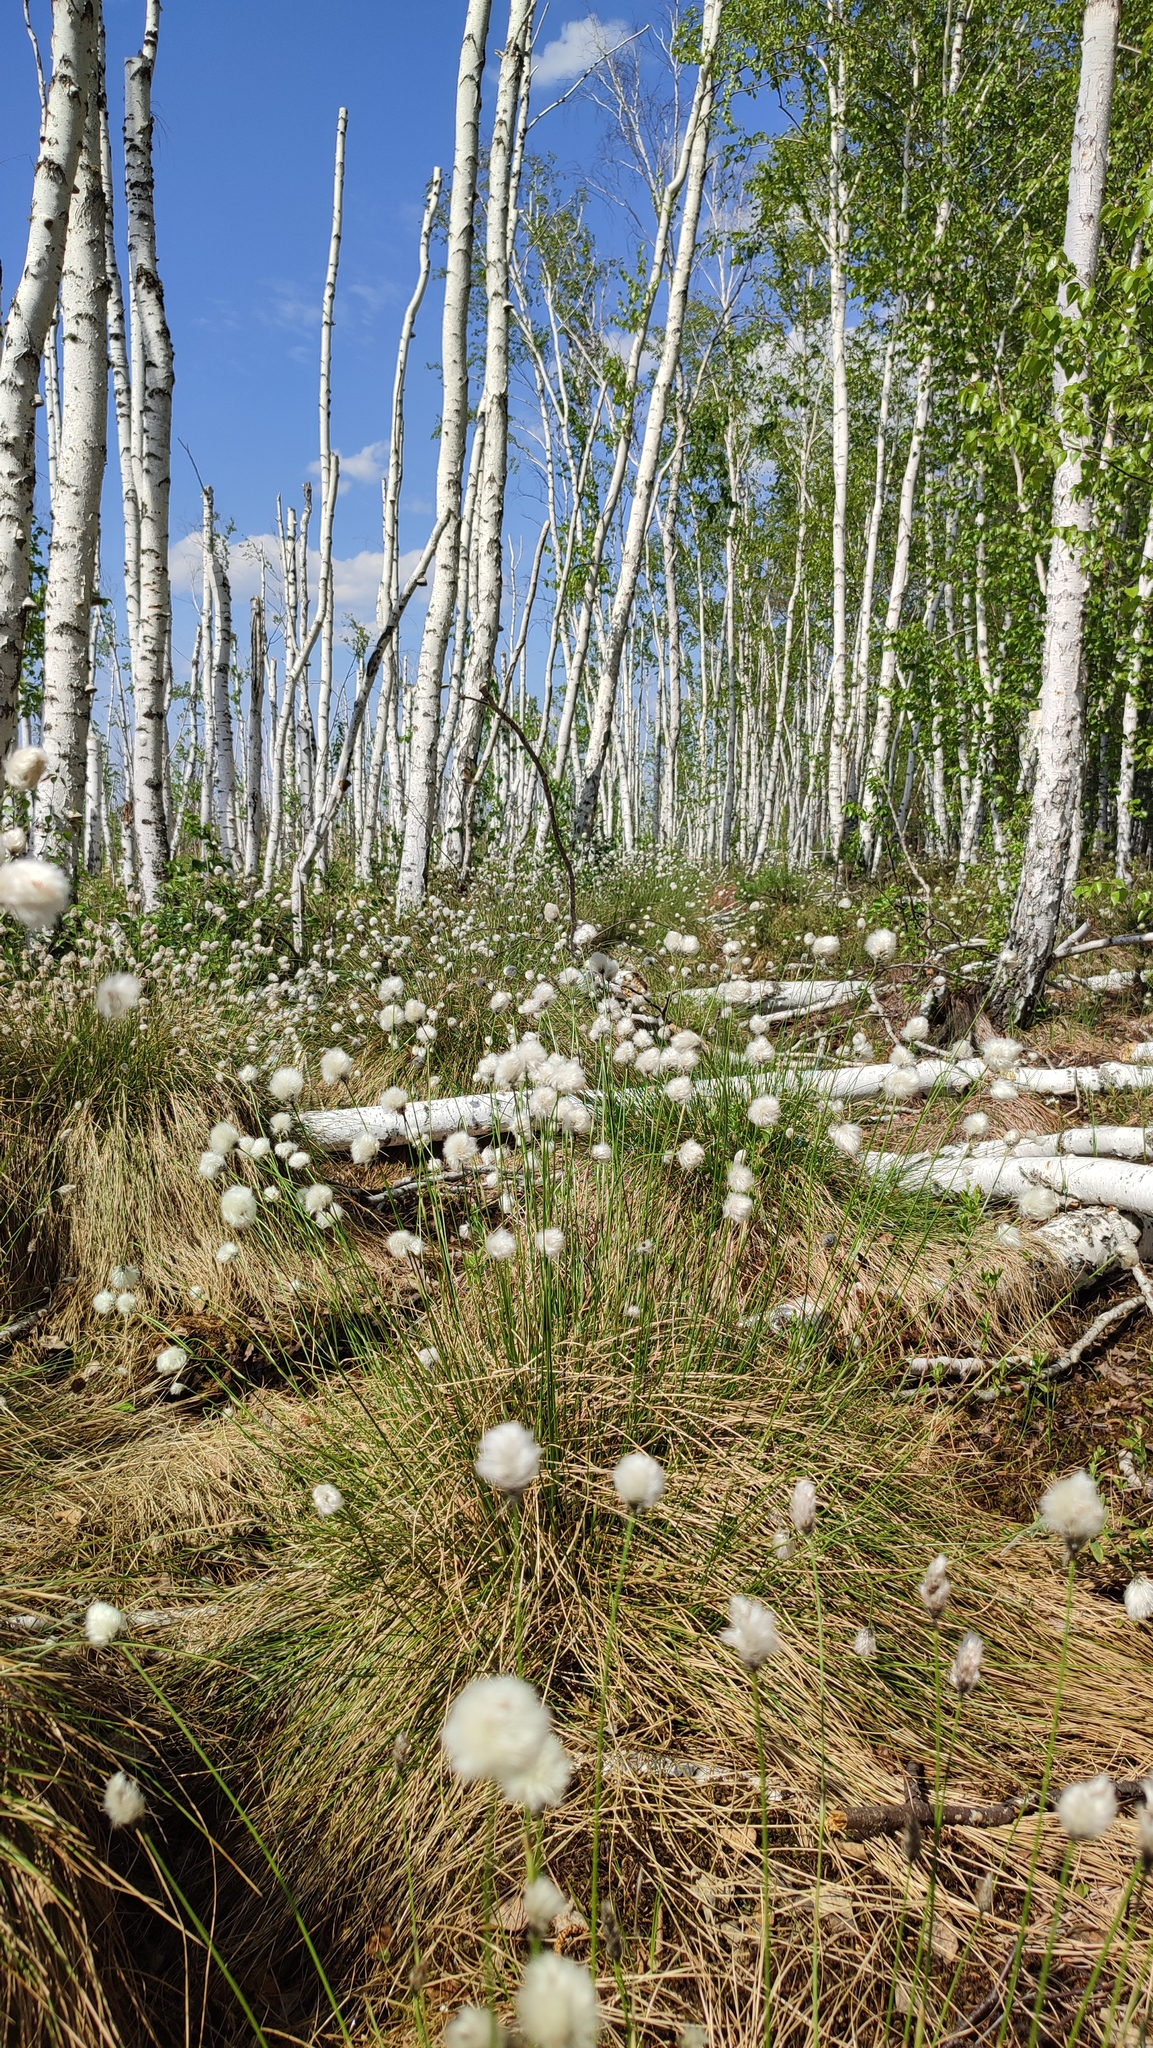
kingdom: Plantae
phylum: Tracheophyta
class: Liliopsida
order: Poales
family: Cyperaceae
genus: Eriophorum
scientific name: Eriophorum vaginatum
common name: Hare's-tail cottongrass
